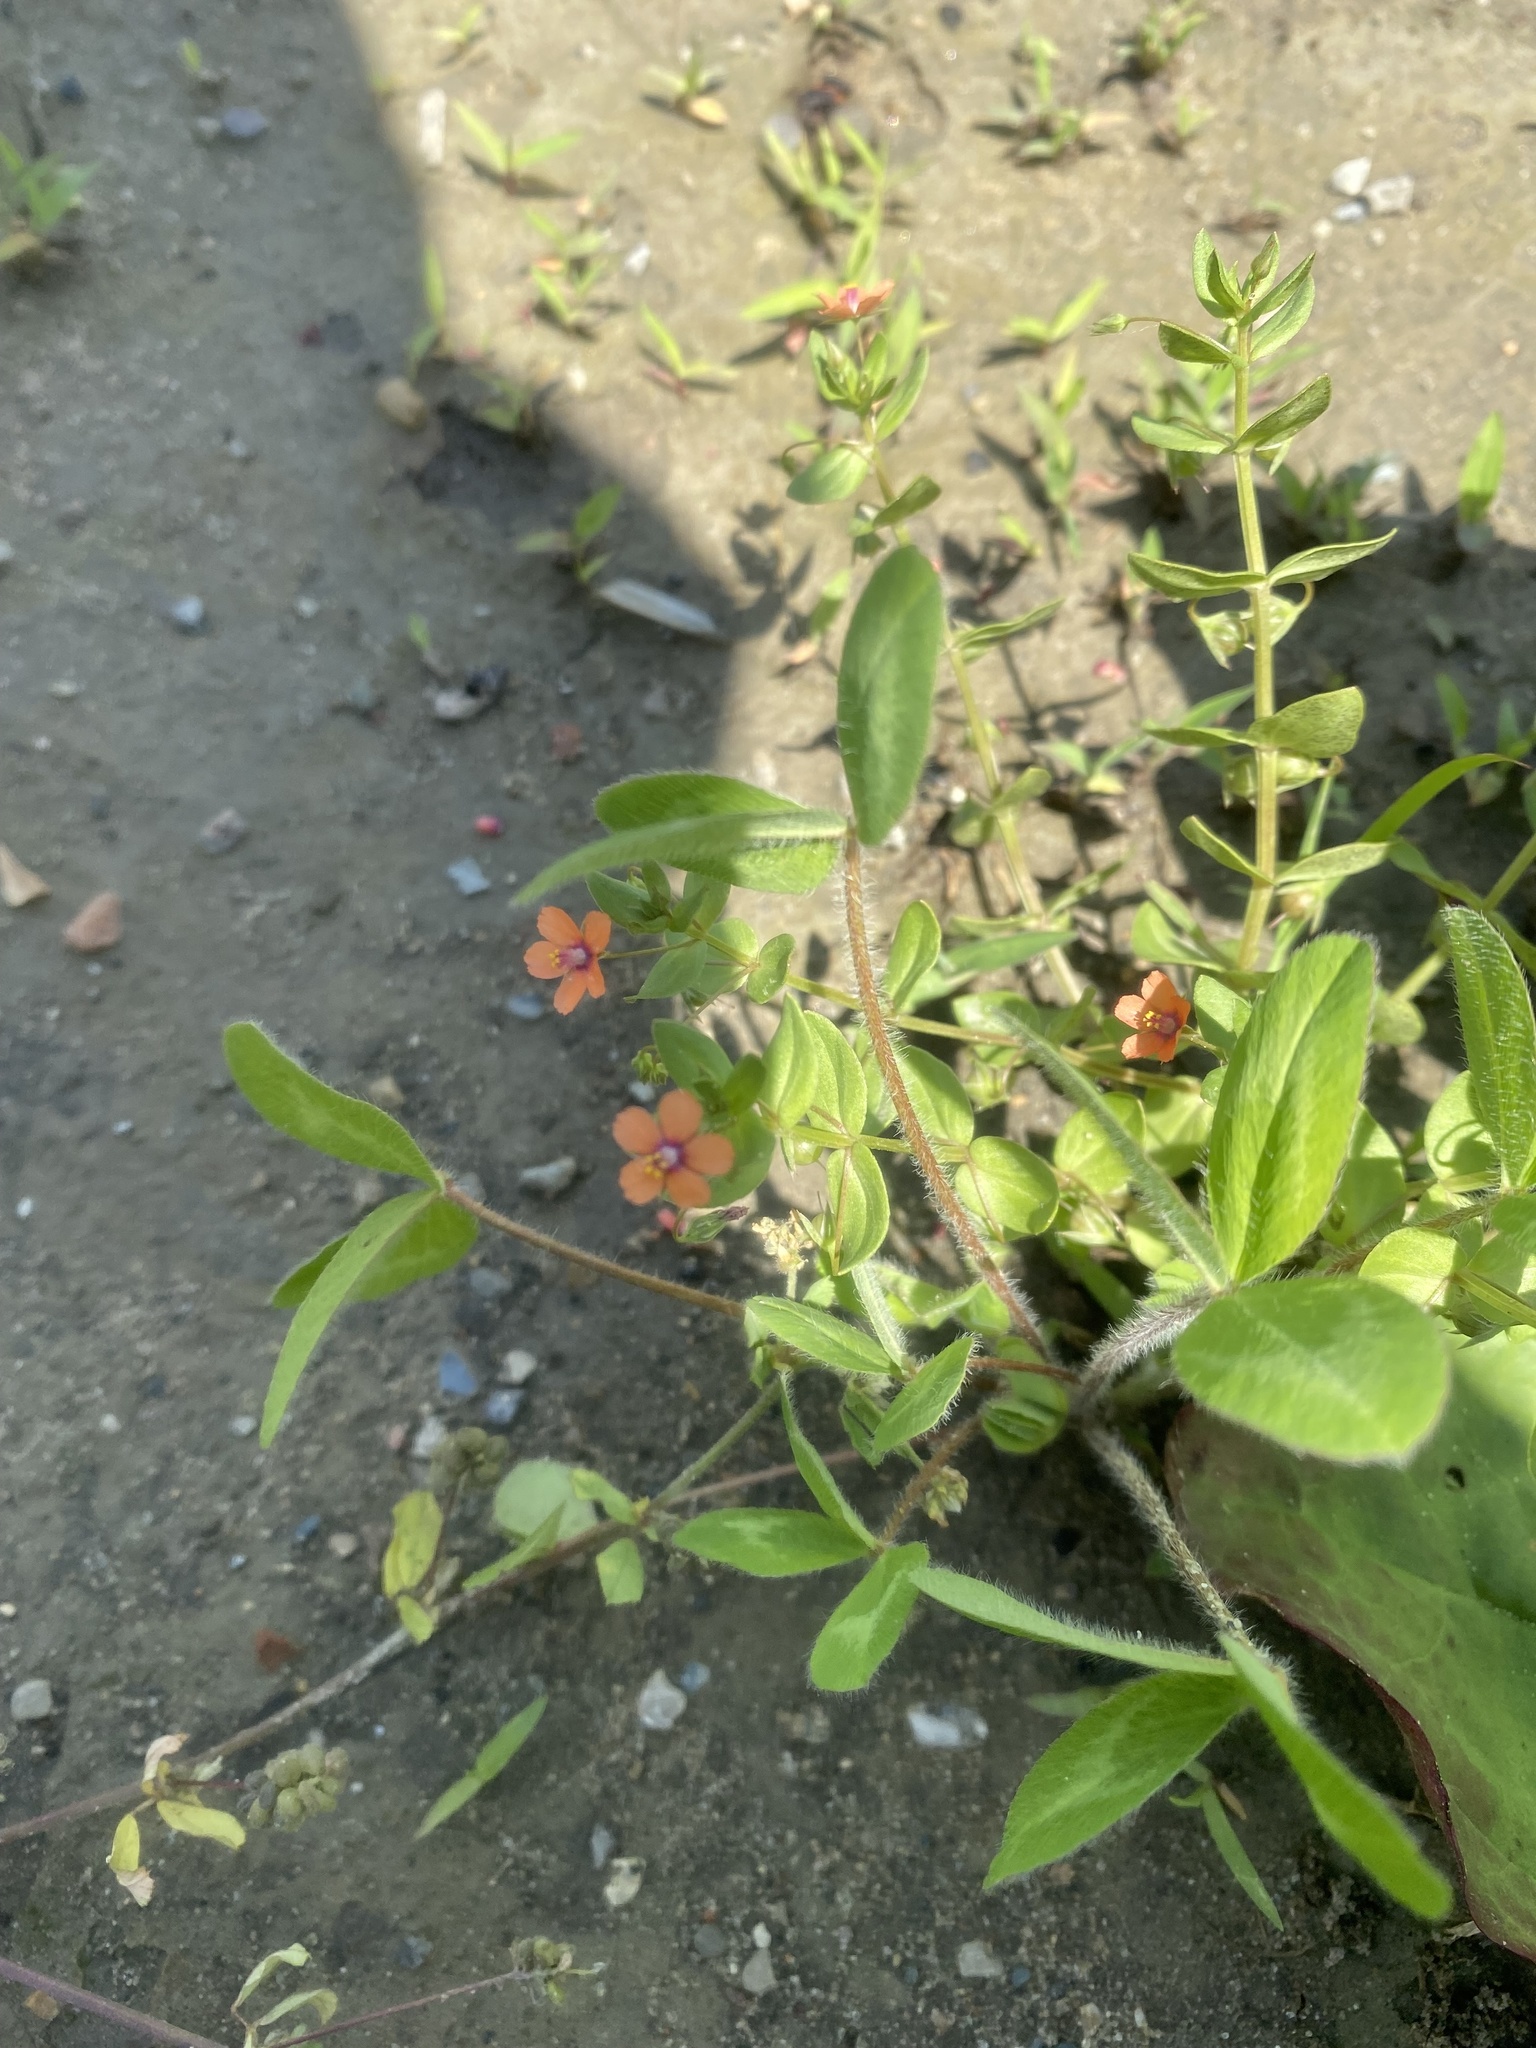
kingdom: Plantae
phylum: Tracheophyta
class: Magnoliopsida
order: Ericales
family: Primulaceae
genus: Lysimachia
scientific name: Lysimachia arvensis
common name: Scarlet pimpernel
